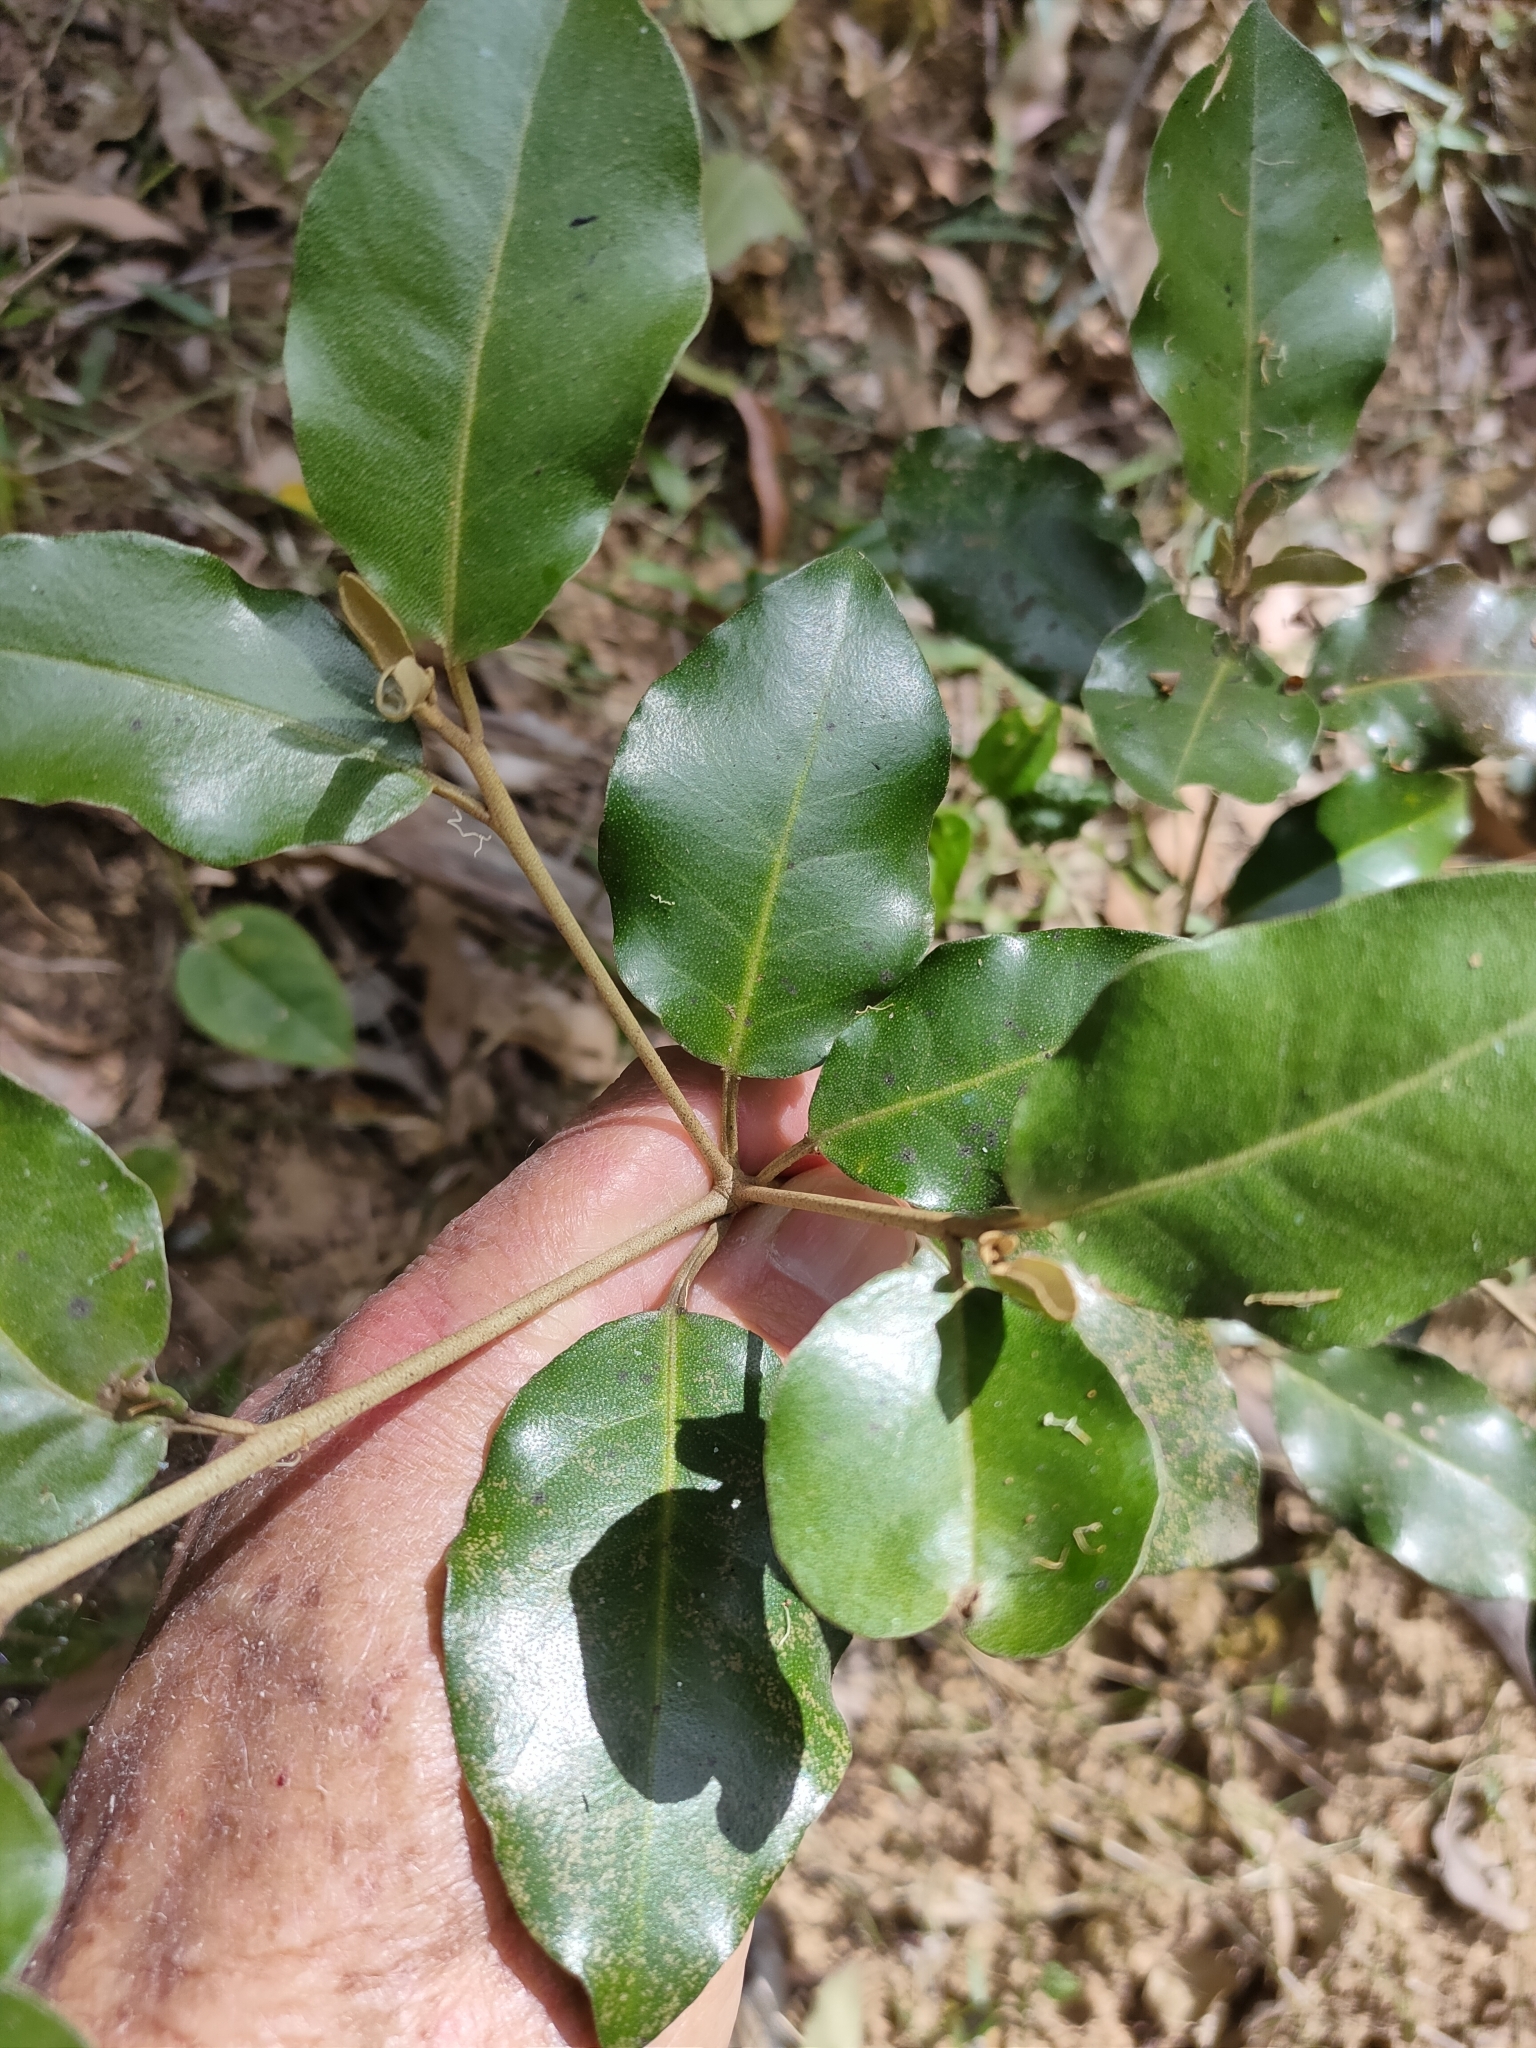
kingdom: Plantae
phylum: Tracheophyta
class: Magnoliopsida
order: Malpighiales
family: Euphorbiaceae
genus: Croton
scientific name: Croton insularis
